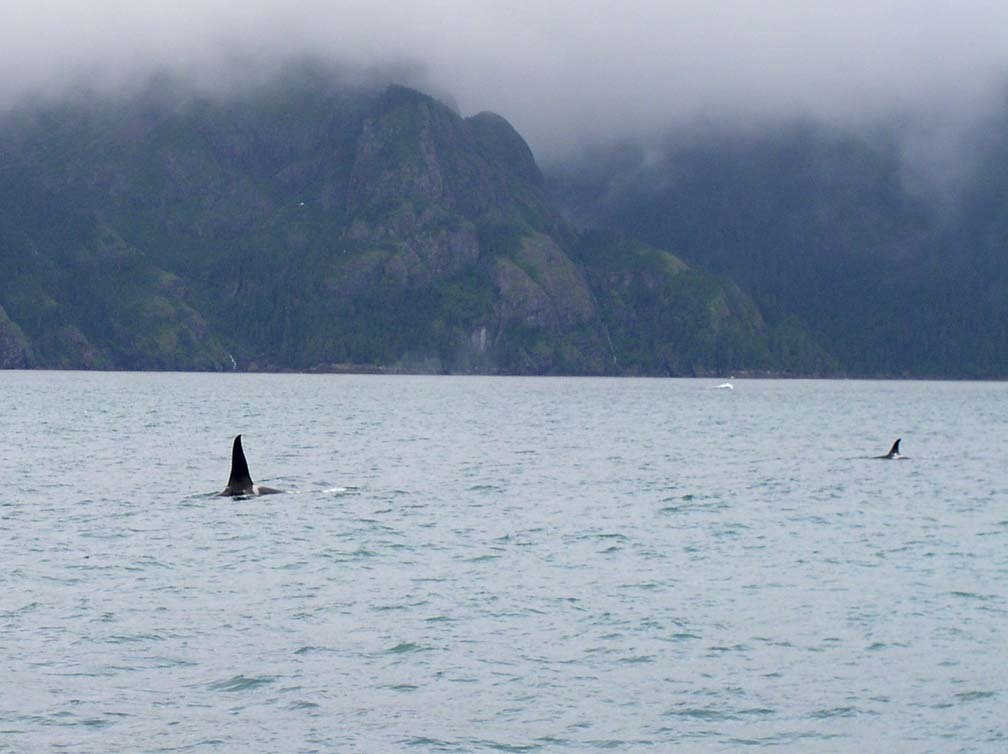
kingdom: Animalia
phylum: Chordata
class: Mammalia
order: Cetacea
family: Delphinidae
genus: Orcinus
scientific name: Orcinus orca
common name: Killer whale
